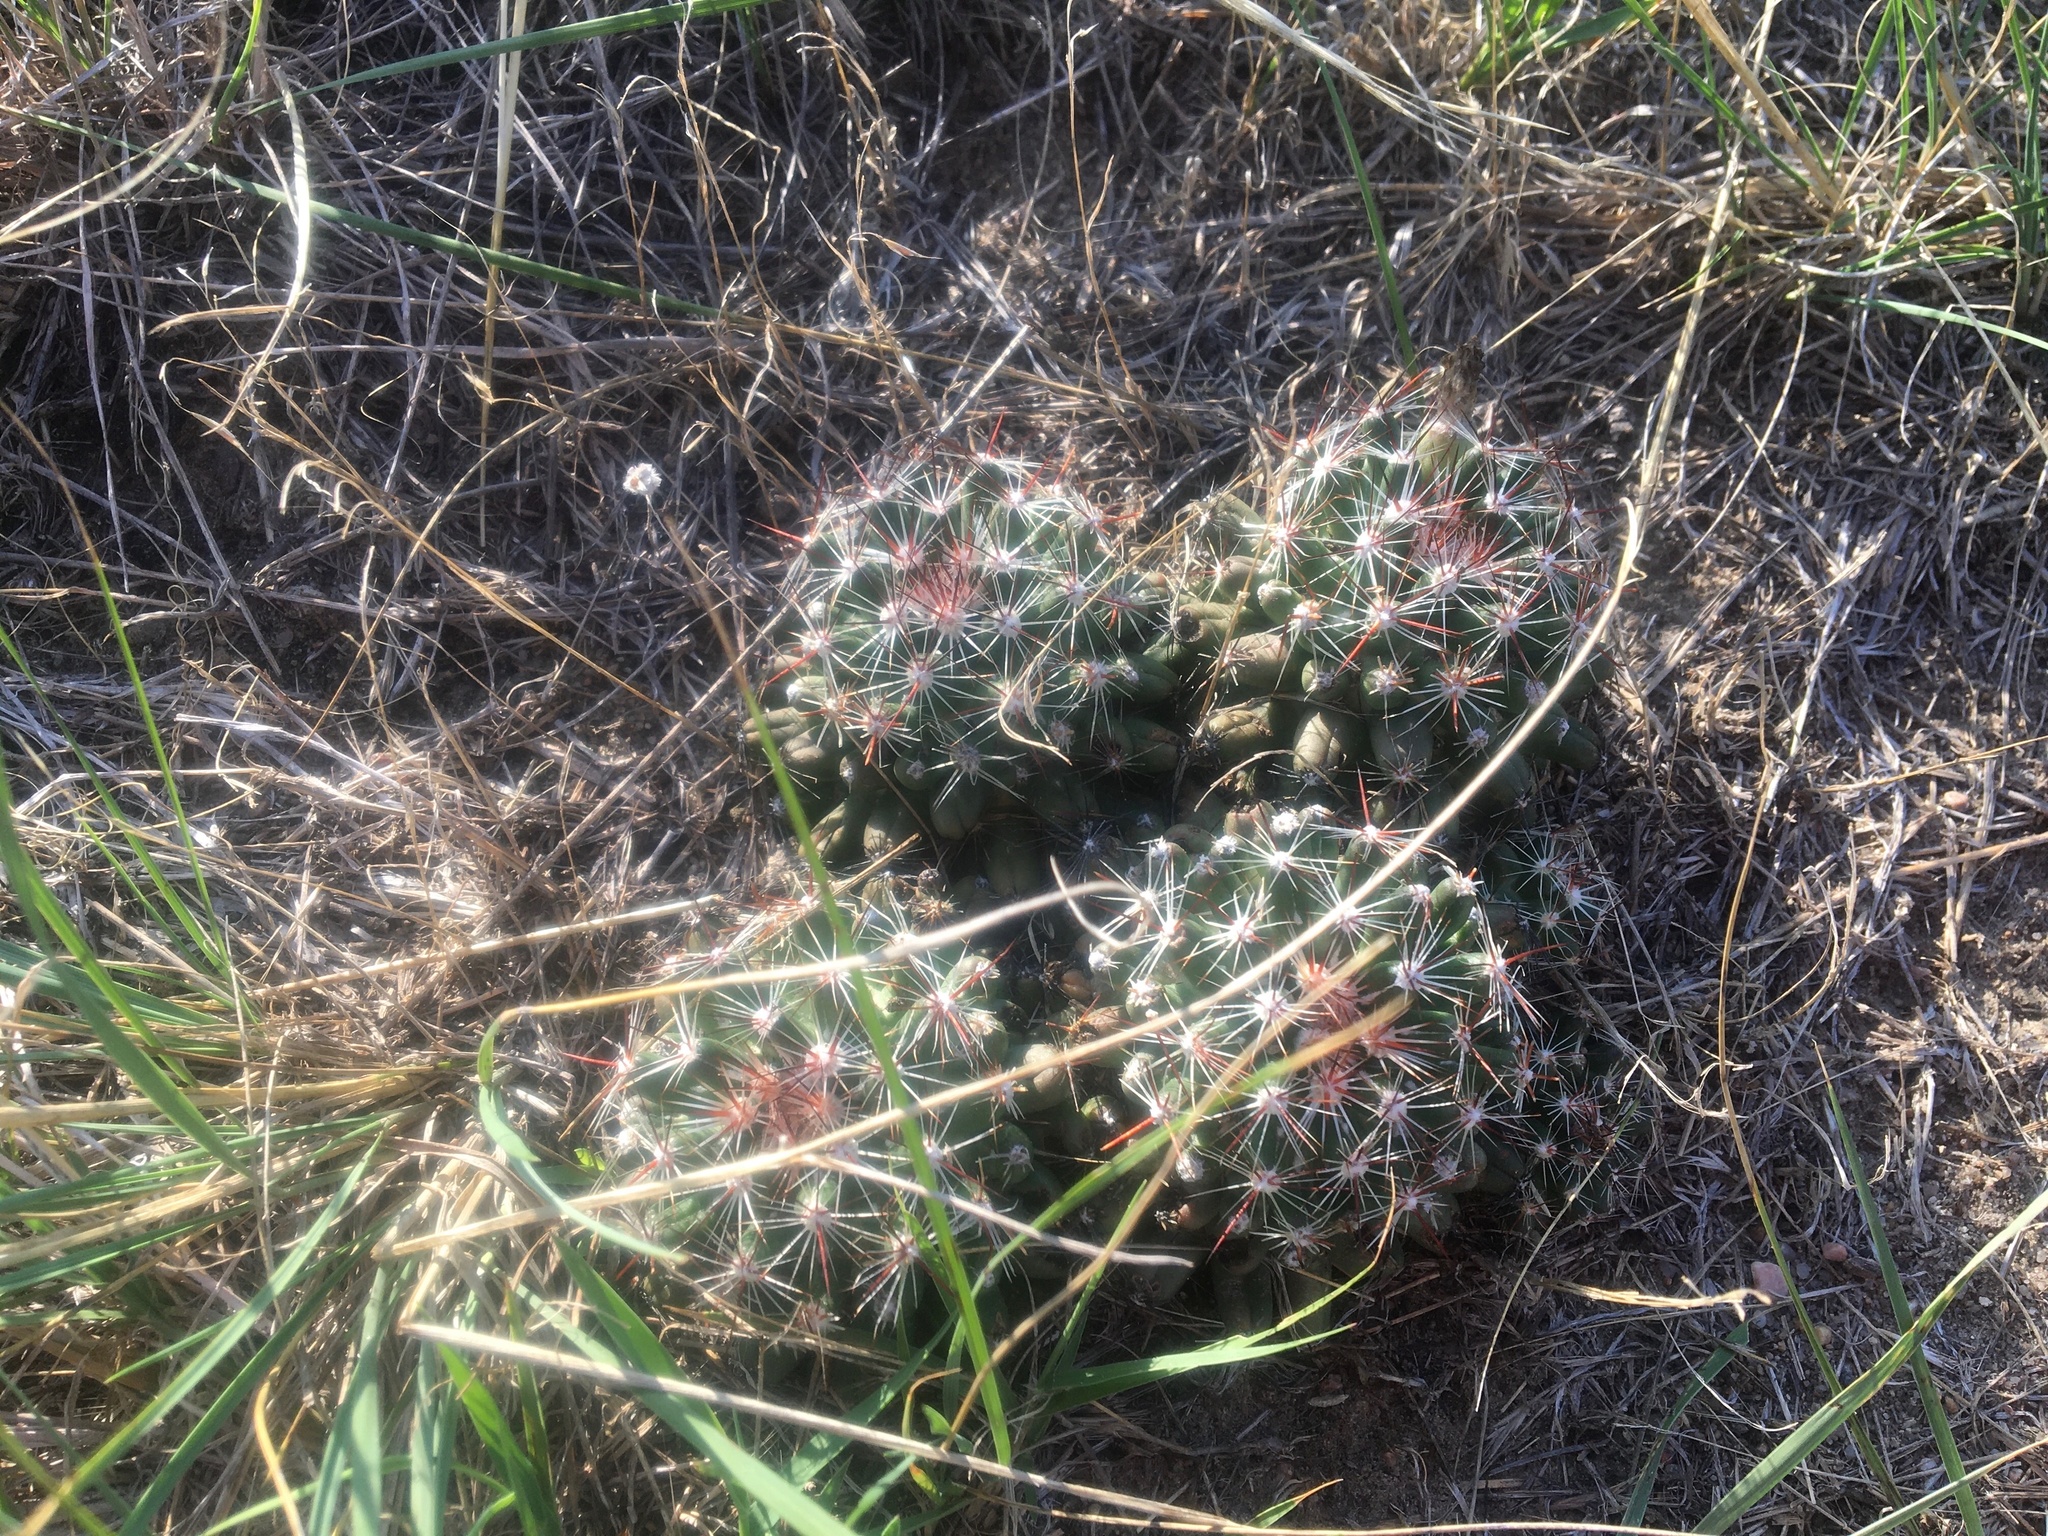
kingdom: Plantae
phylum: Tracheophyta
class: Magnoliopsida
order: Caryophyllales
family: Cactaceae
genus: Pelecyphora
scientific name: Pelecyphora vivipara
